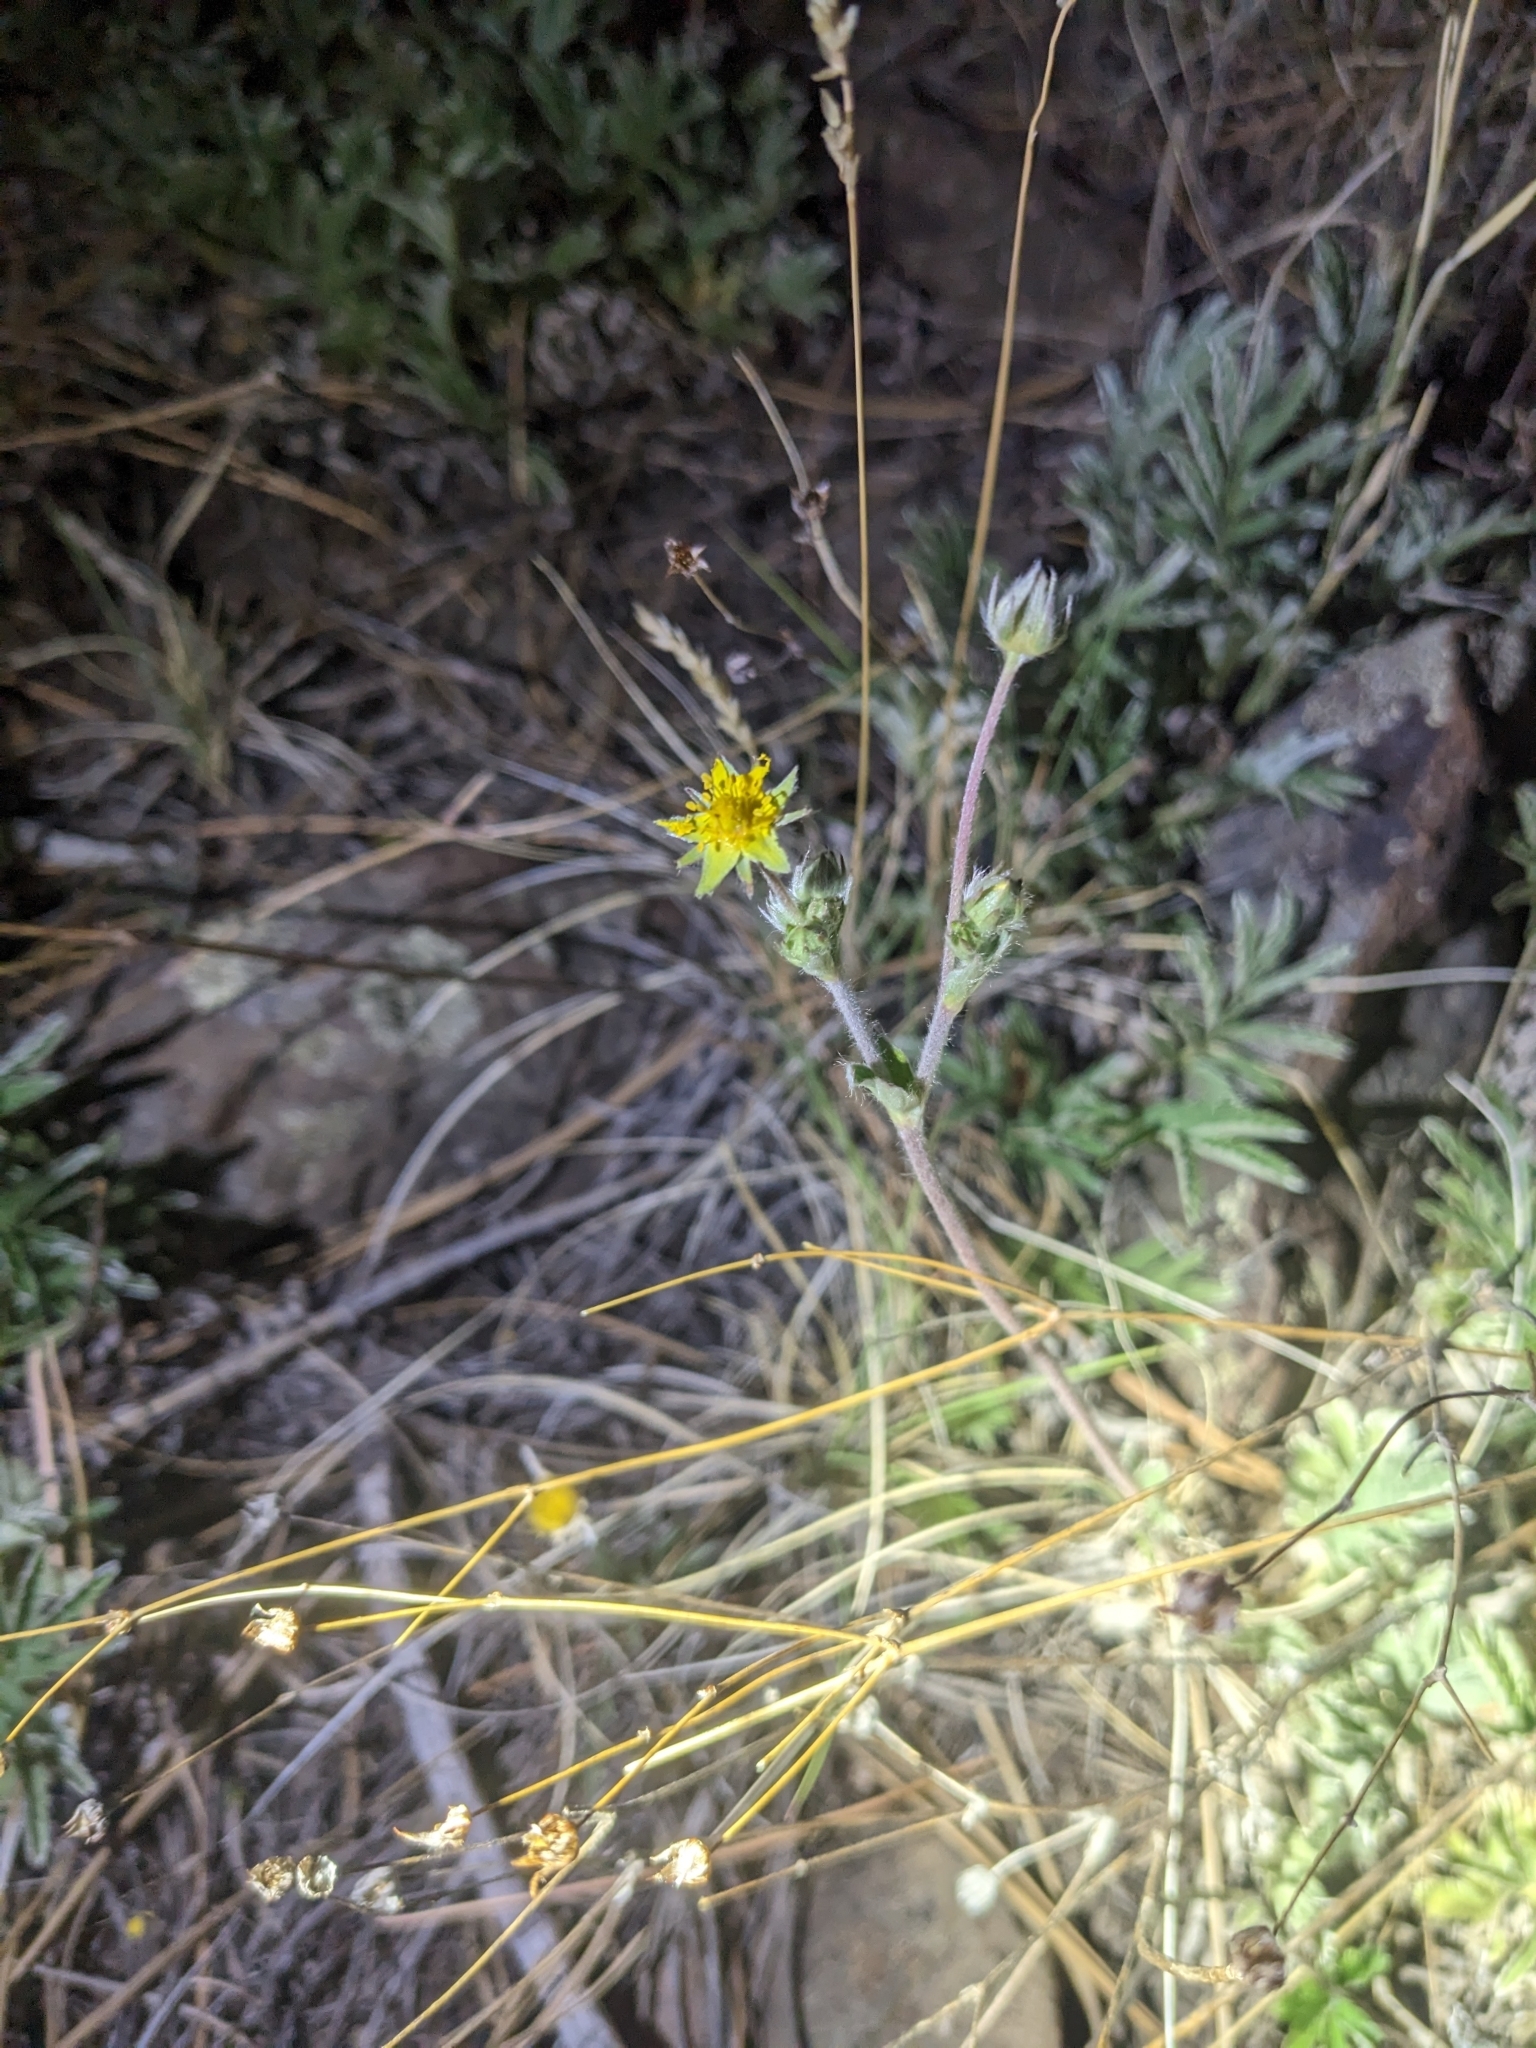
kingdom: Plantae
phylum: Tracheophyta
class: Magnoliopsida
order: Rosales
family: Rosaceae
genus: Potentilla
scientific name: Potentilla hippiana
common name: Woolly cinquefoil
